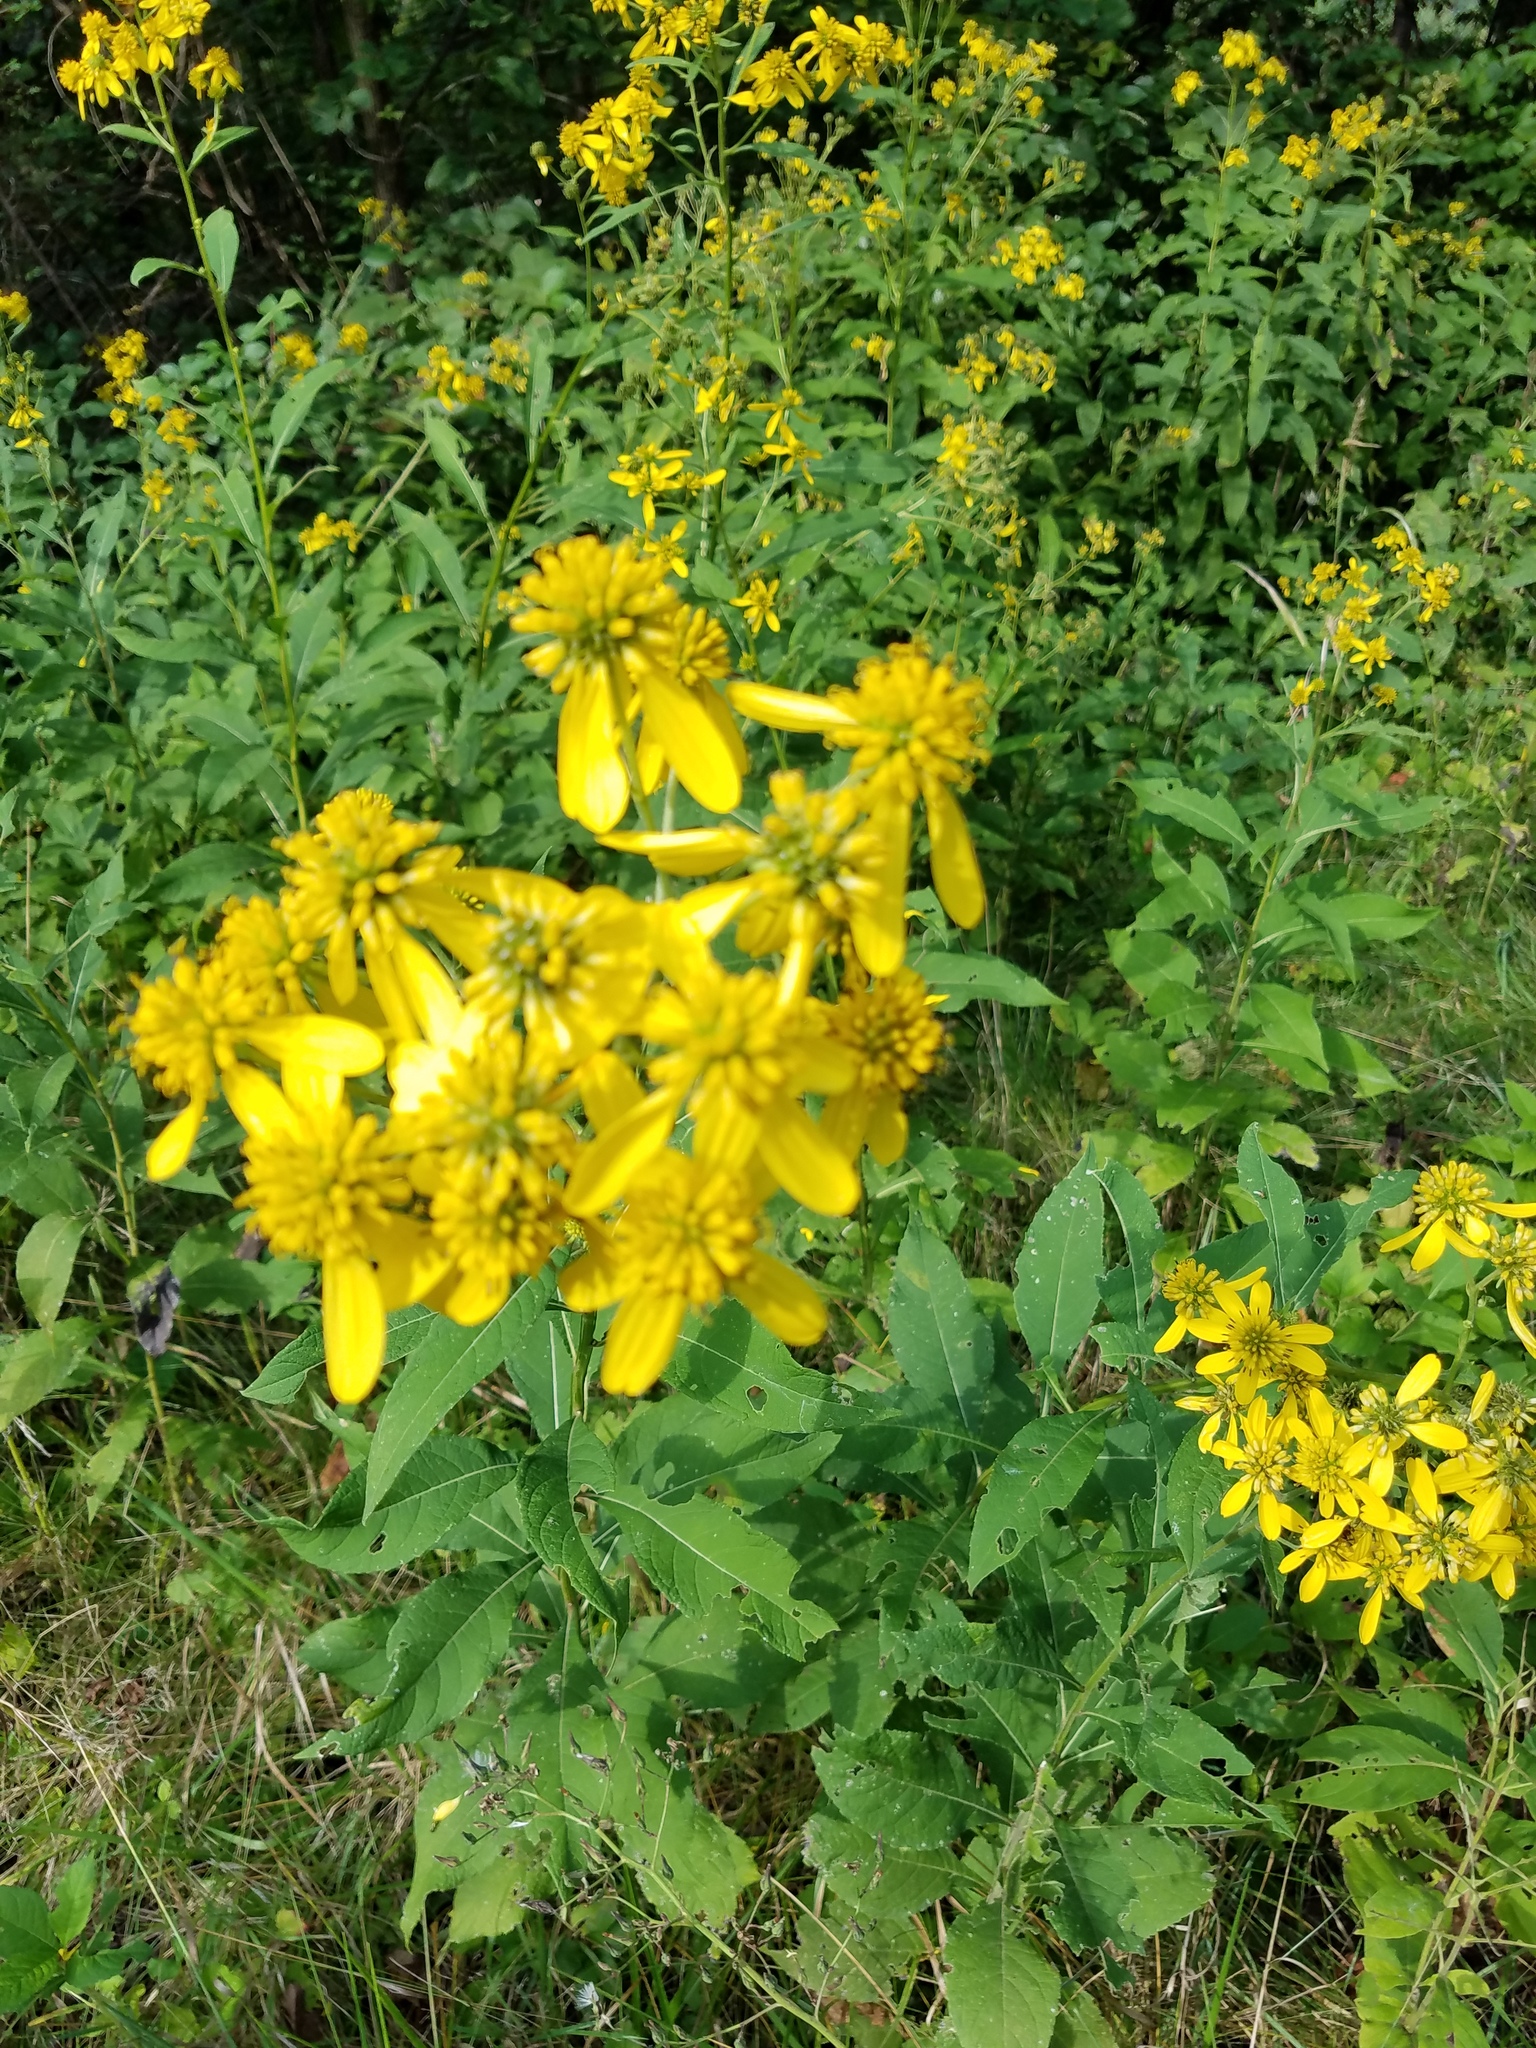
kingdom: Plantae
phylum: Tracheophyta
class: Magnoliopsida
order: Asterales
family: Asteraceae
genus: Verbesina
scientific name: Verbesina alternifolia
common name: Wingstem
